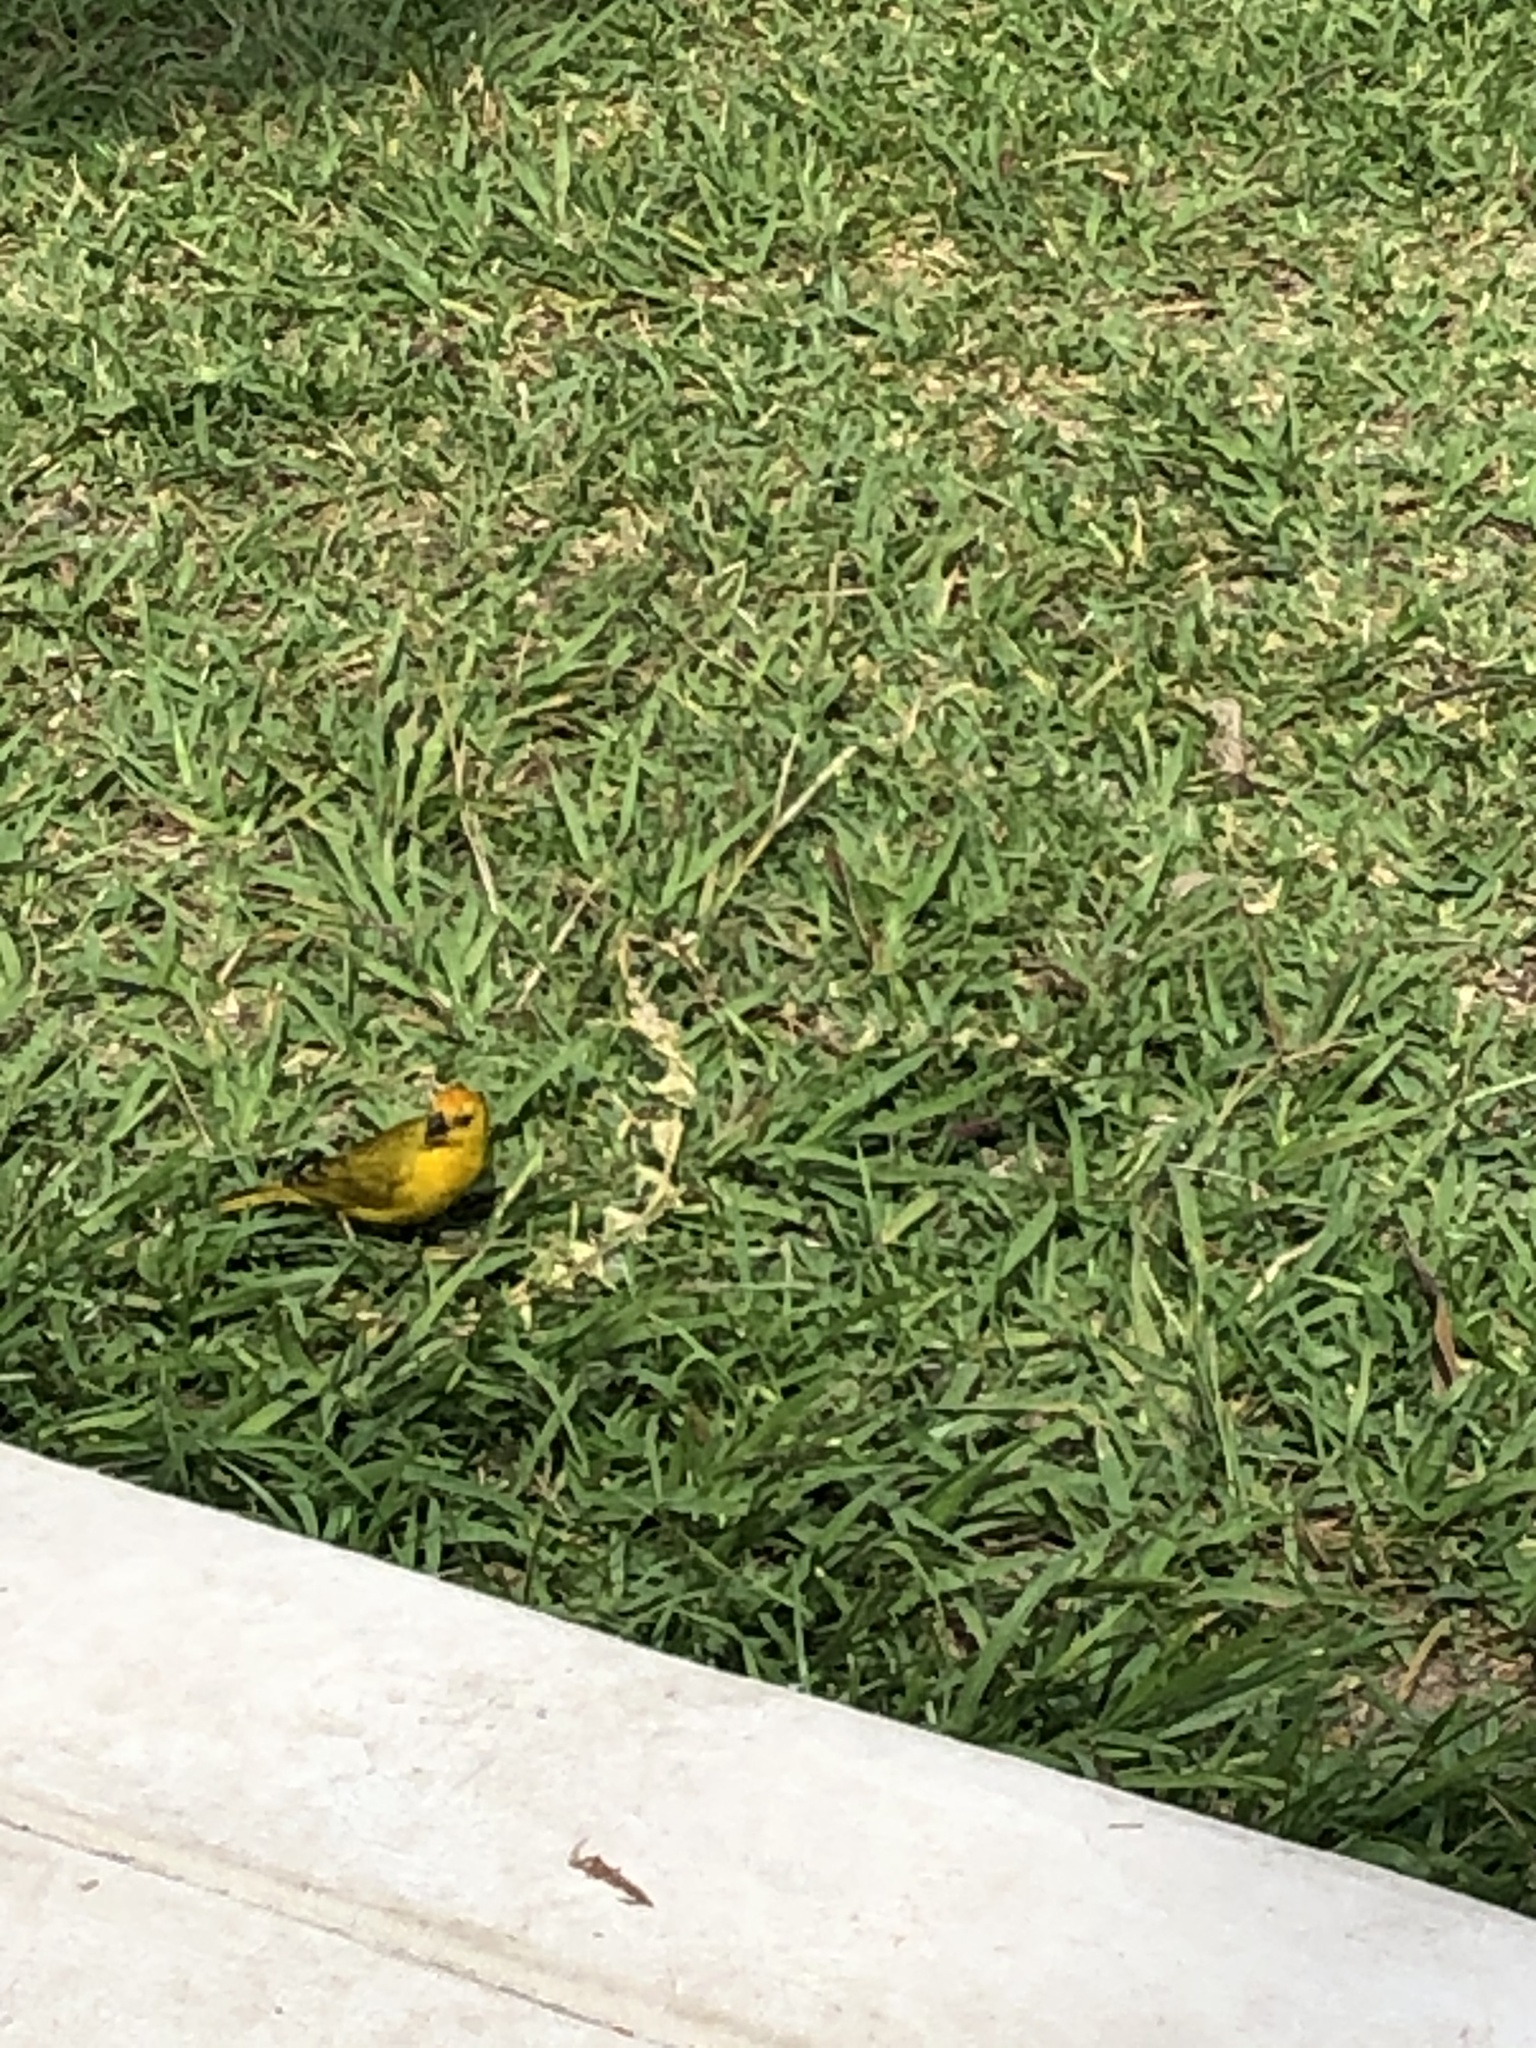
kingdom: Animalia
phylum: Chordata
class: Aves
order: Passeriformes
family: Thraupidae
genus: Sicalis
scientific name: Sicalis flaveola
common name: Saffron finch
